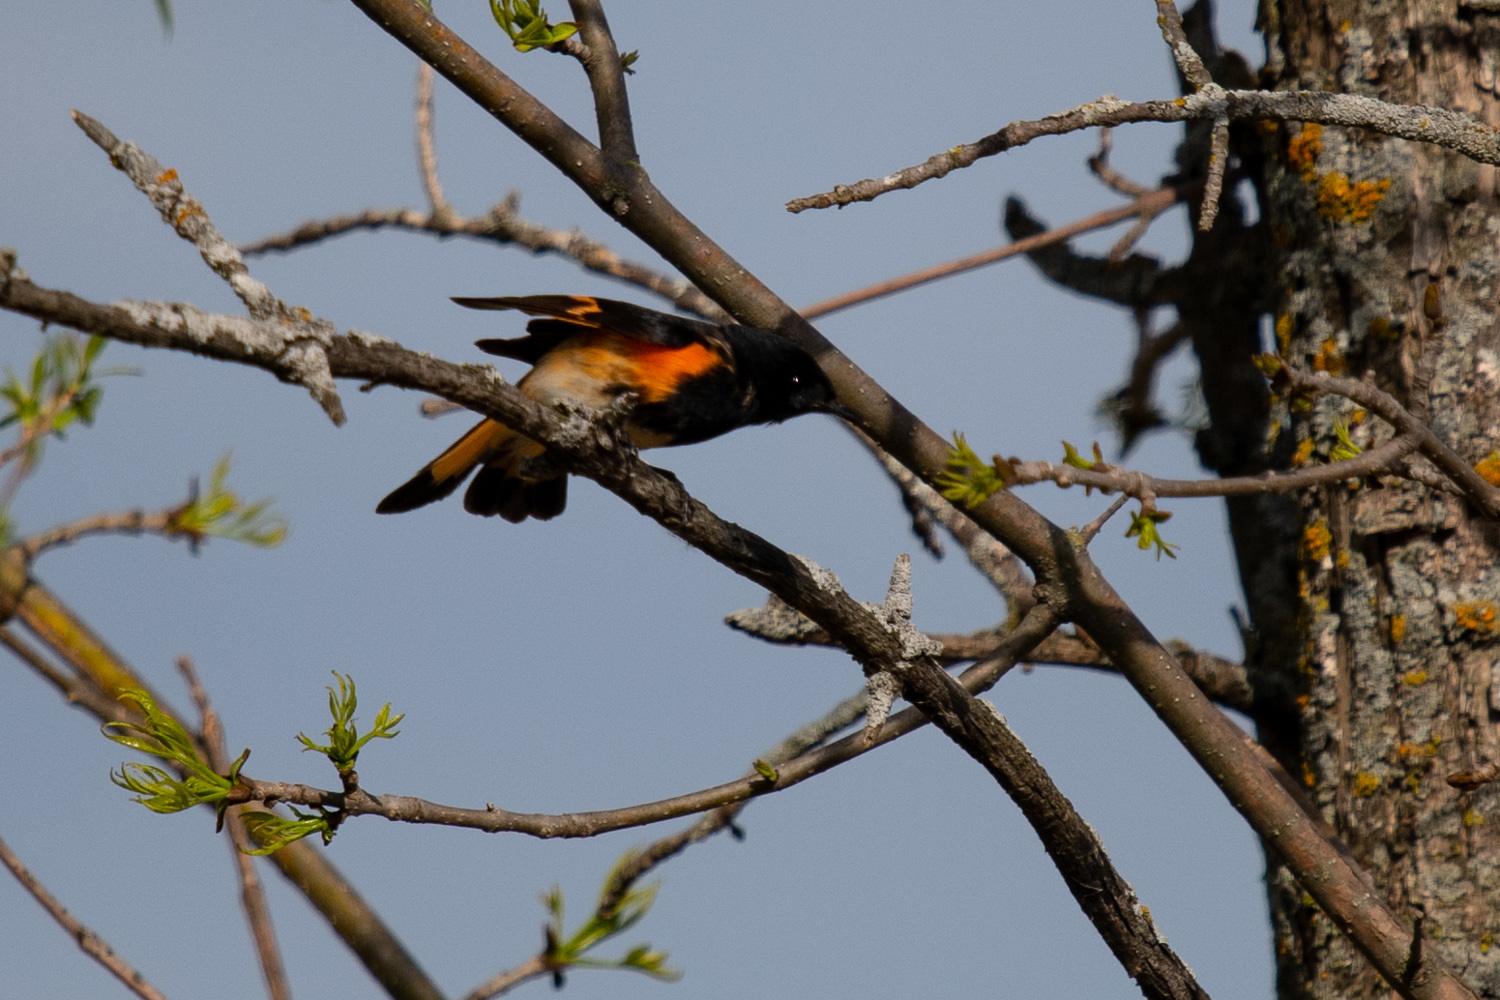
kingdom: Animalia
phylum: Chordata
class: Aves
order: Passeriformes
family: Parulidae
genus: Setophaga
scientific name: Setophaga ruticilla
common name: American redstart
